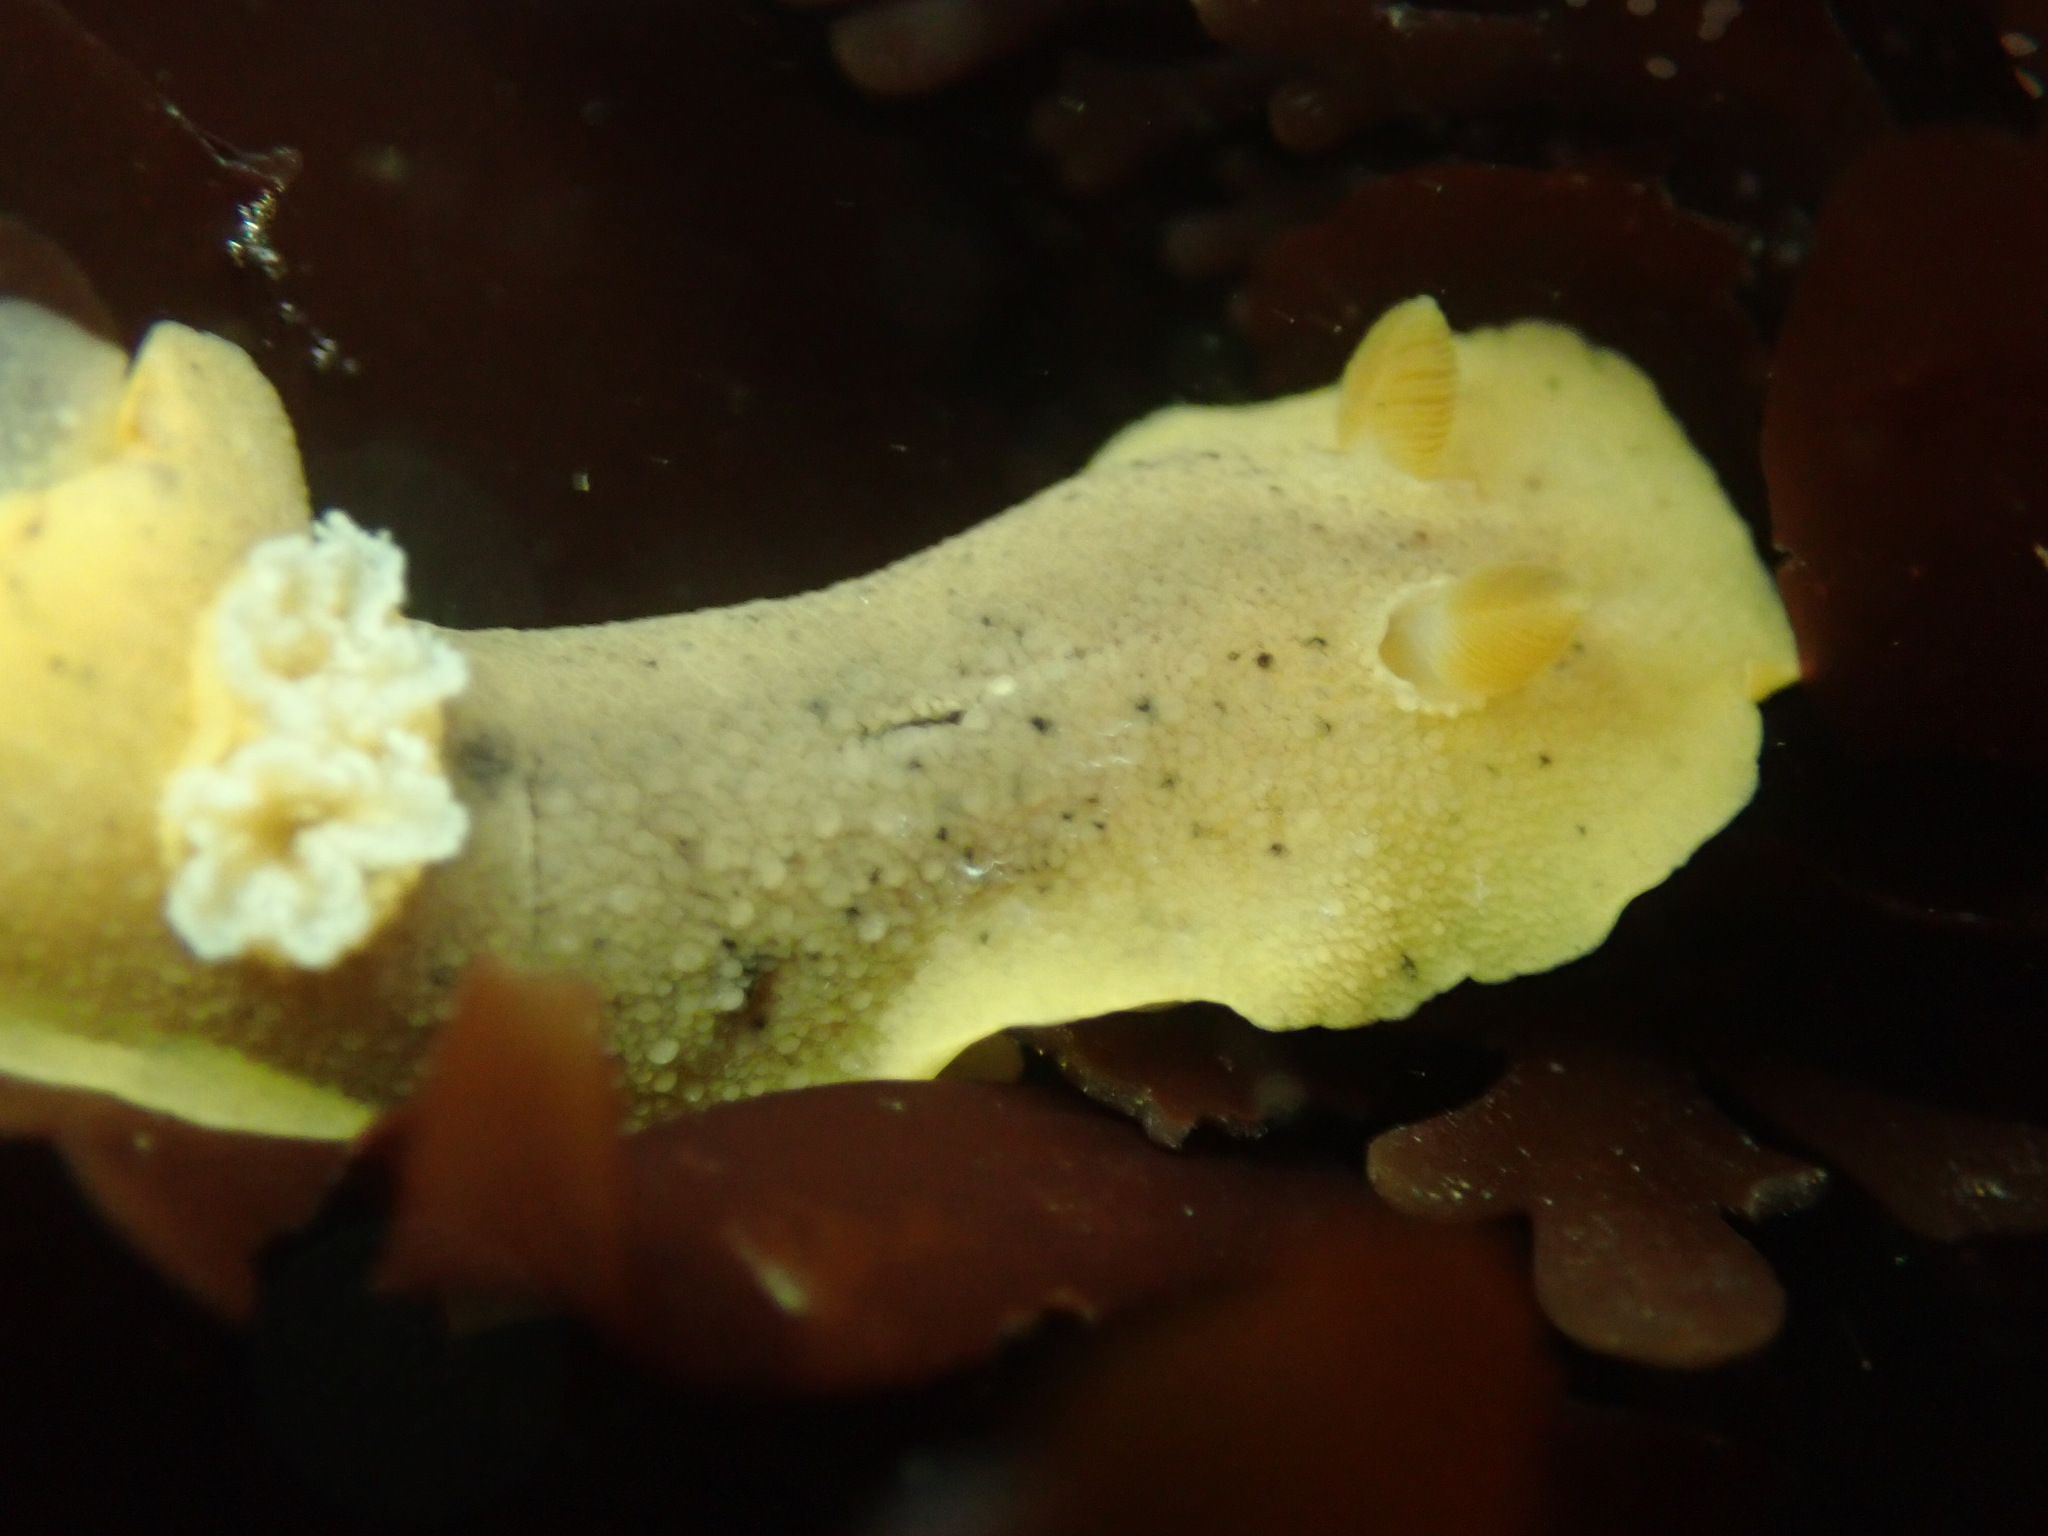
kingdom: Animalia
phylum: Mollusca
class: Gastropoda
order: Nudibranchia
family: Discodorididae
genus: Geitodoris
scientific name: Geitodoris heathi
